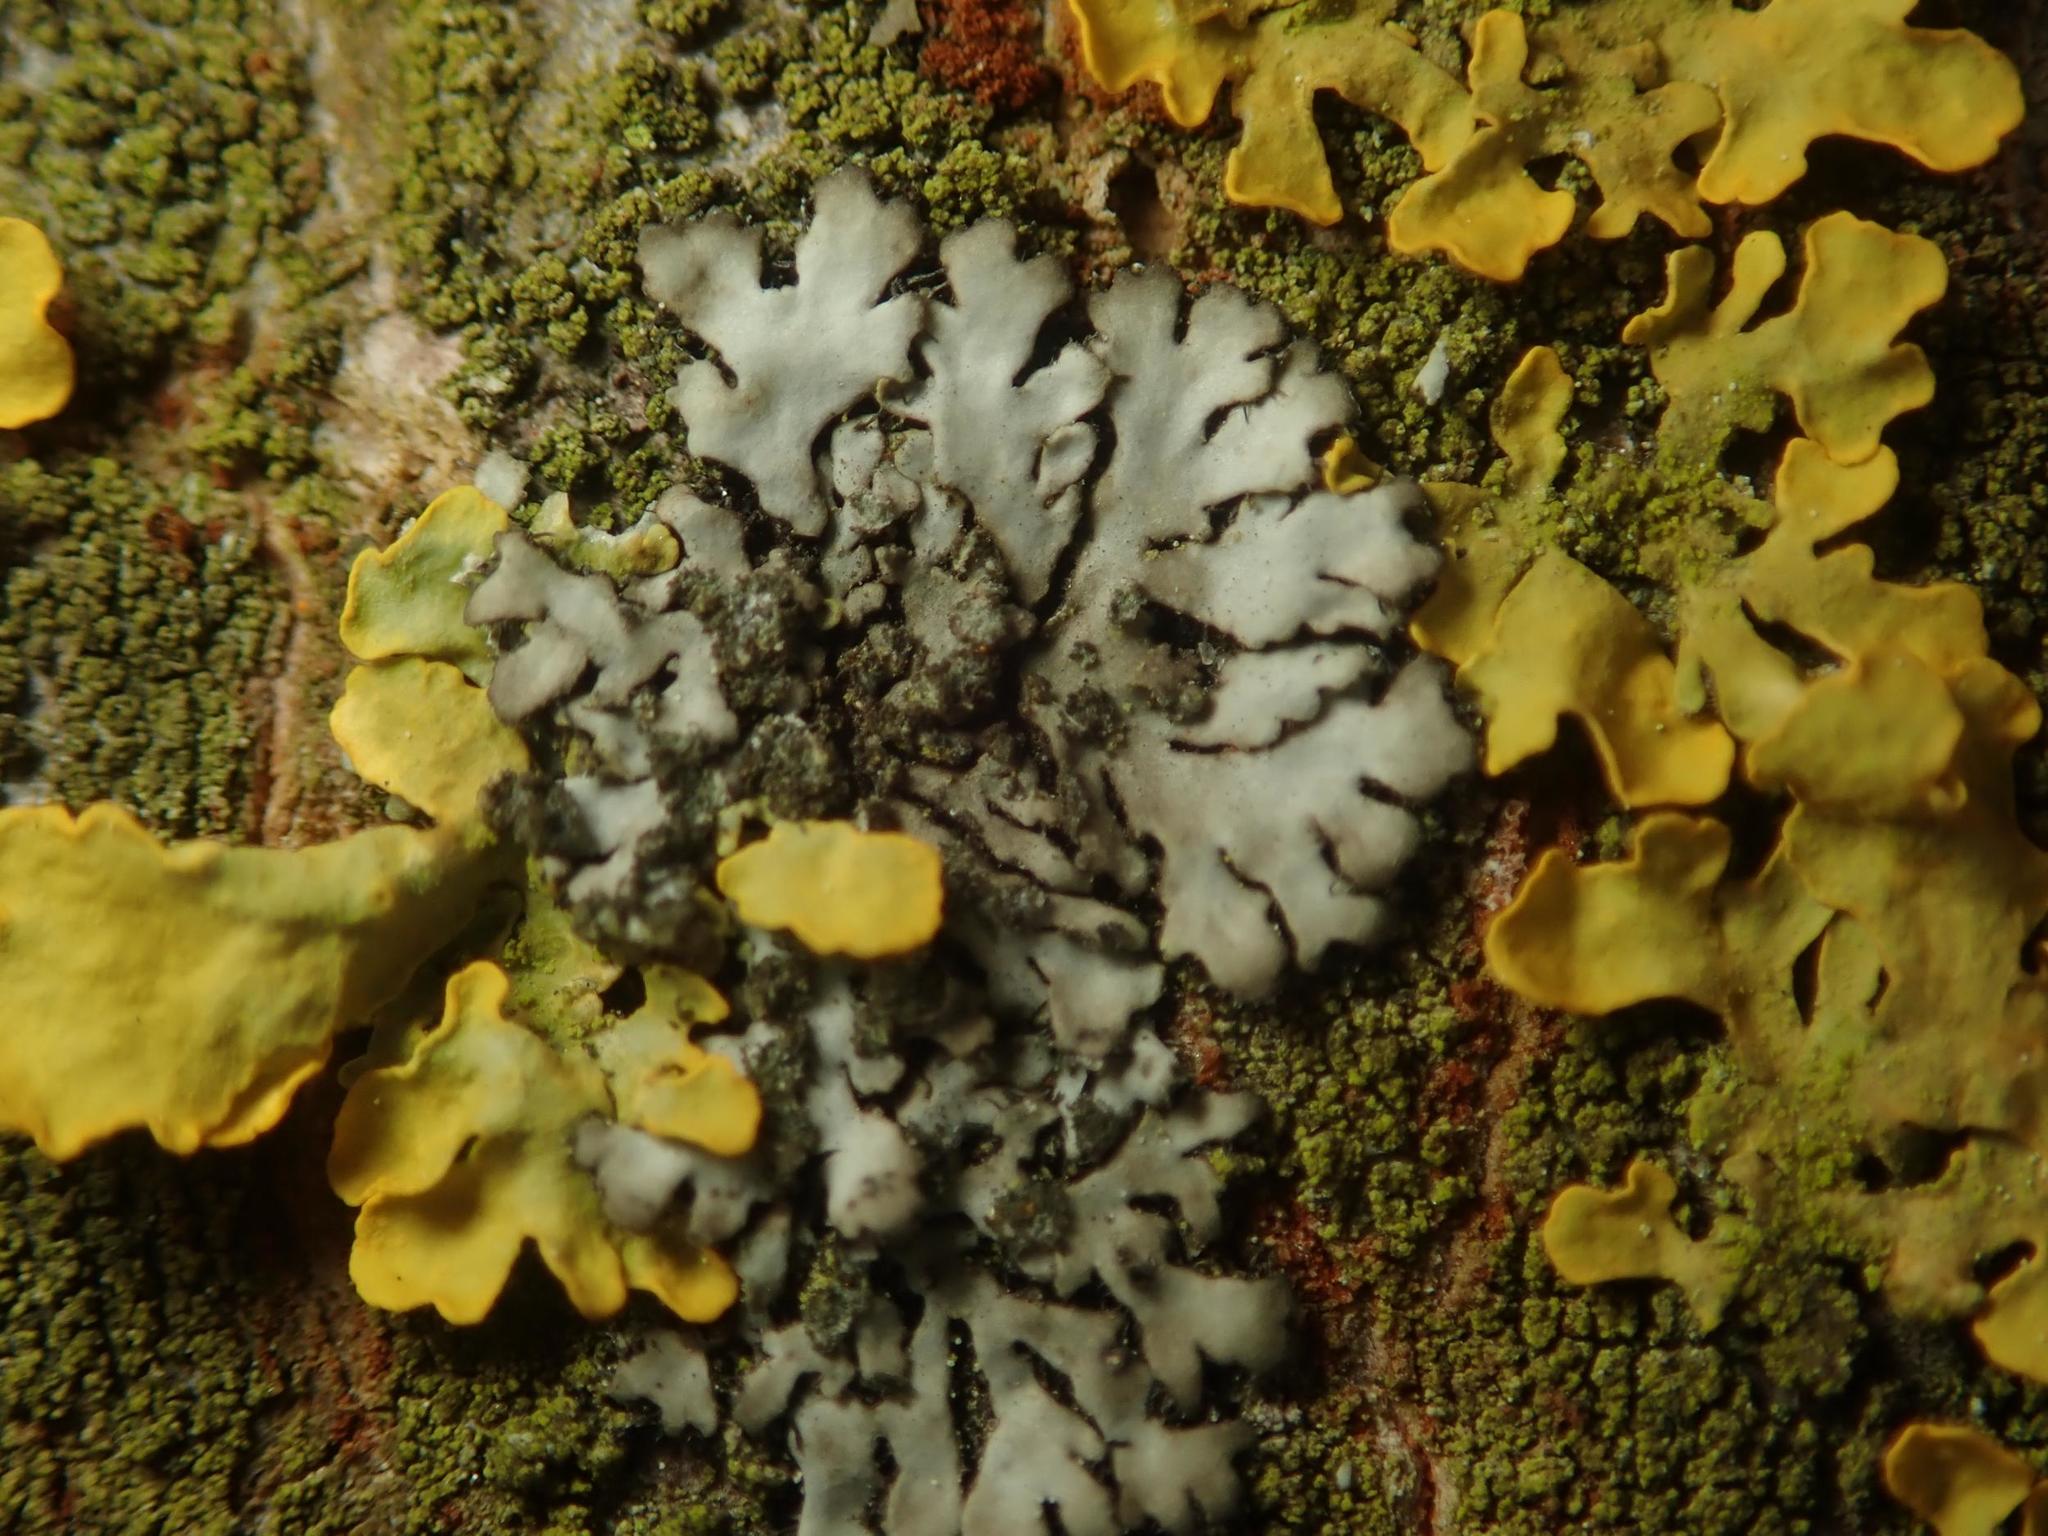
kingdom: Fungi
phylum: Ascomycota
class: Lecanoromycetes
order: Caliciales
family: Physciaceae
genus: Phaeophyscia
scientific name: Phaeophyscia orbicularis
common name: Mealy shadow lichen
